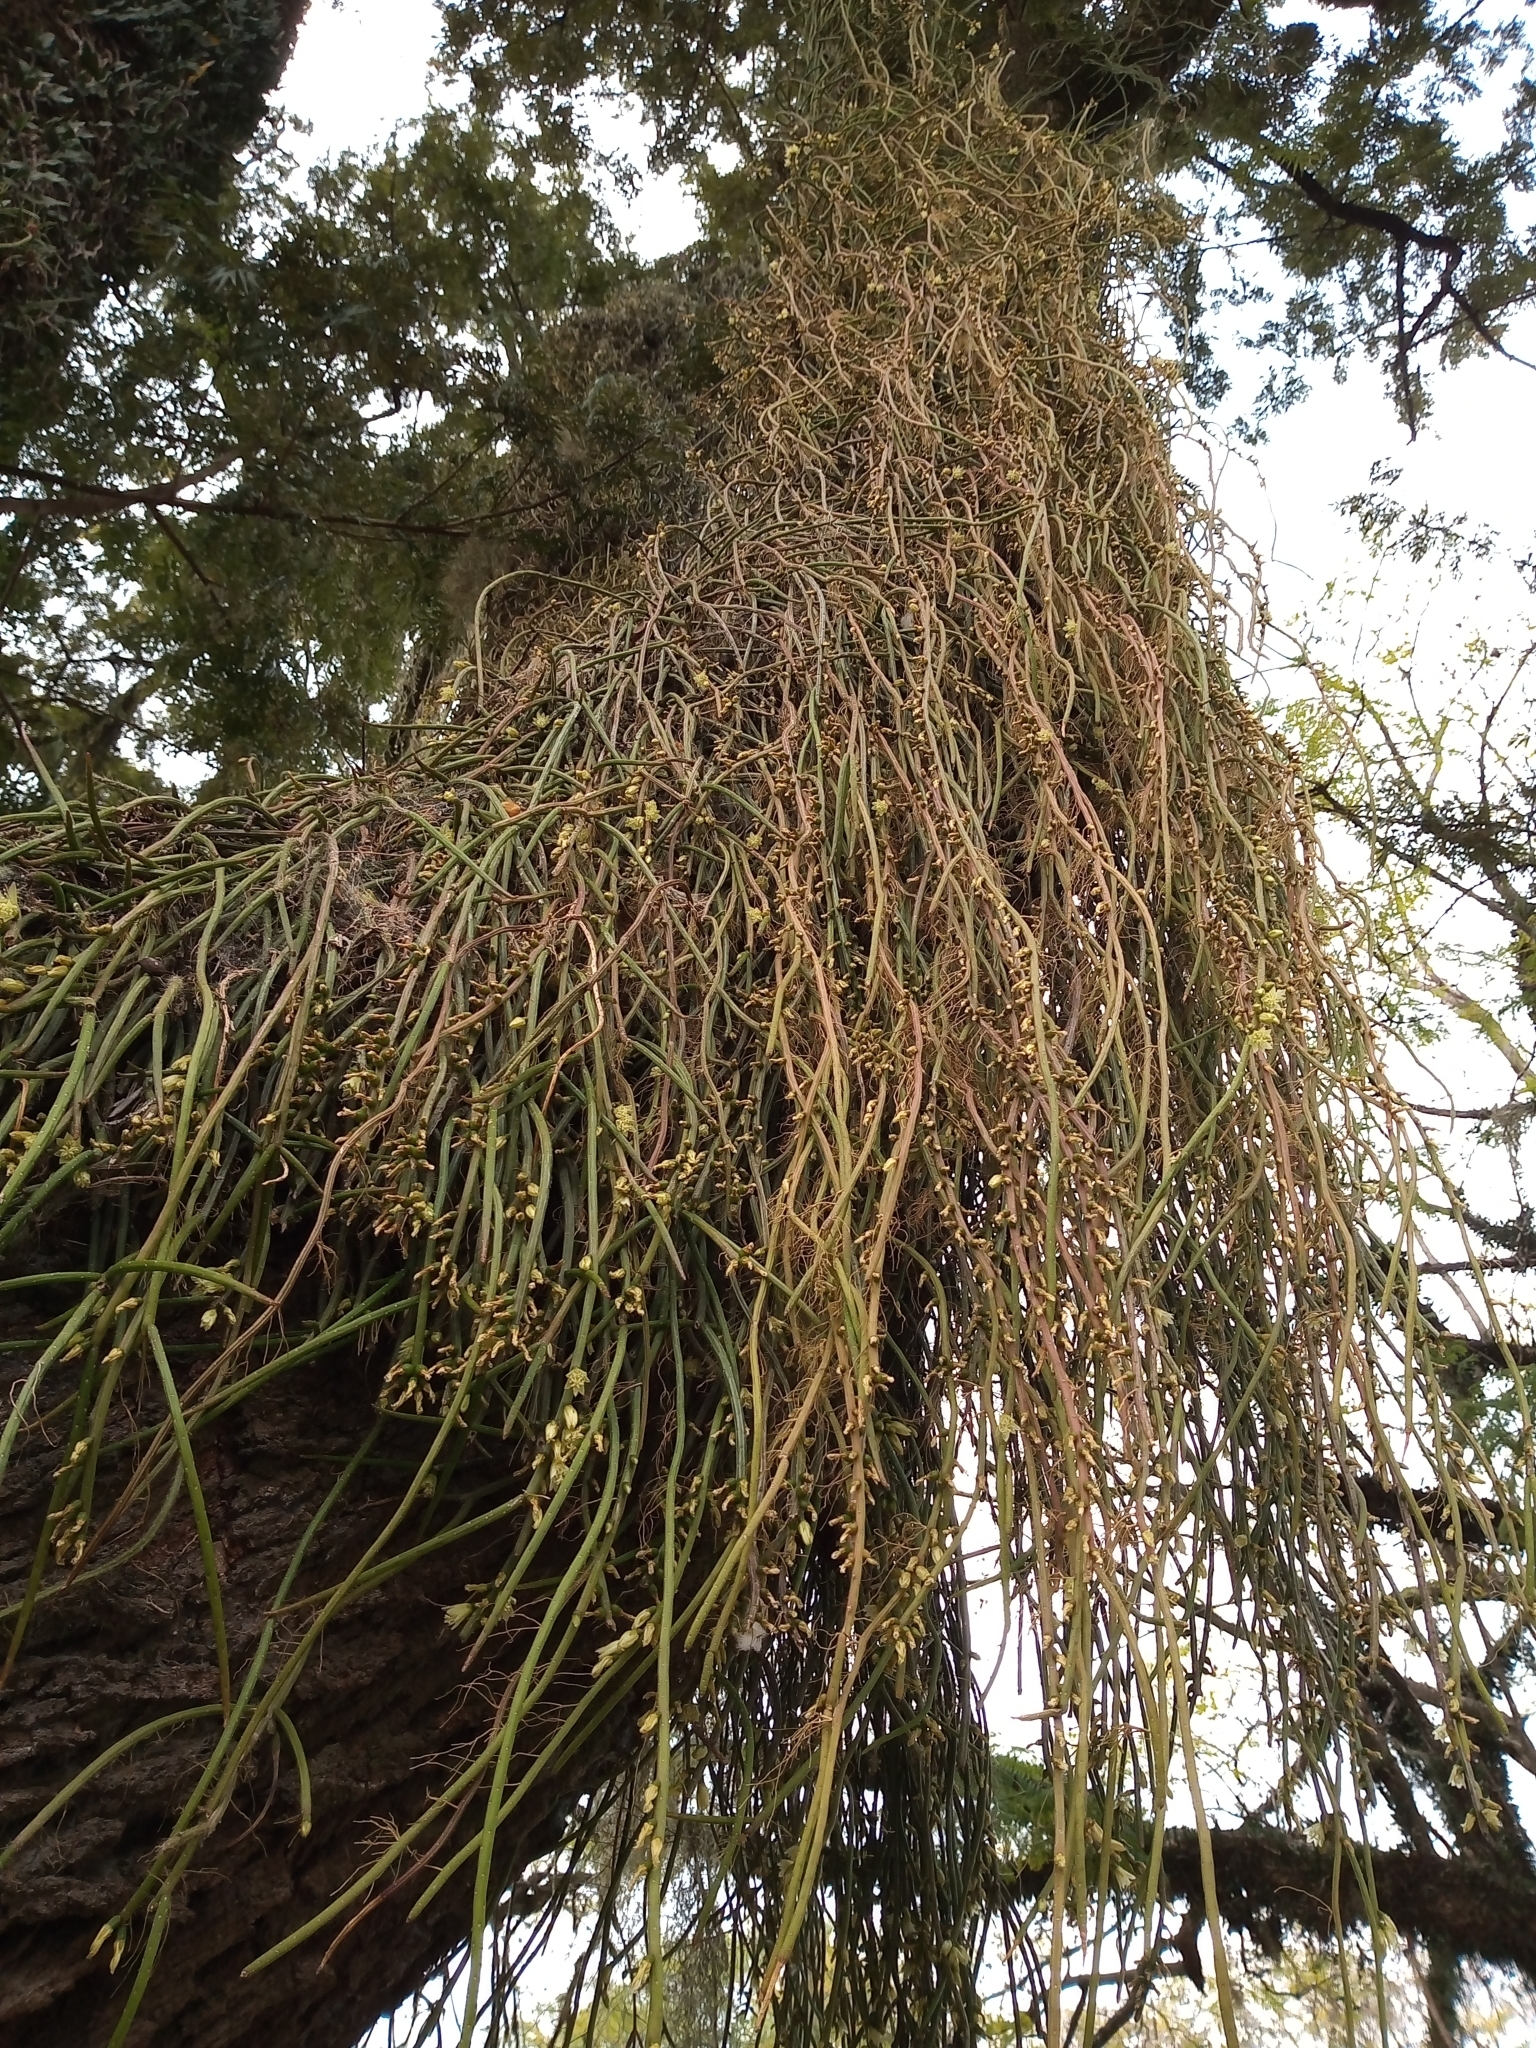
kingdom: Plantae
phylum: Tracheophyta
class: Magnoliopsida
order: Caryophyllales
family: Cactaceae
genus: Lepismium
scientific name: Lepismium lumbricoides
